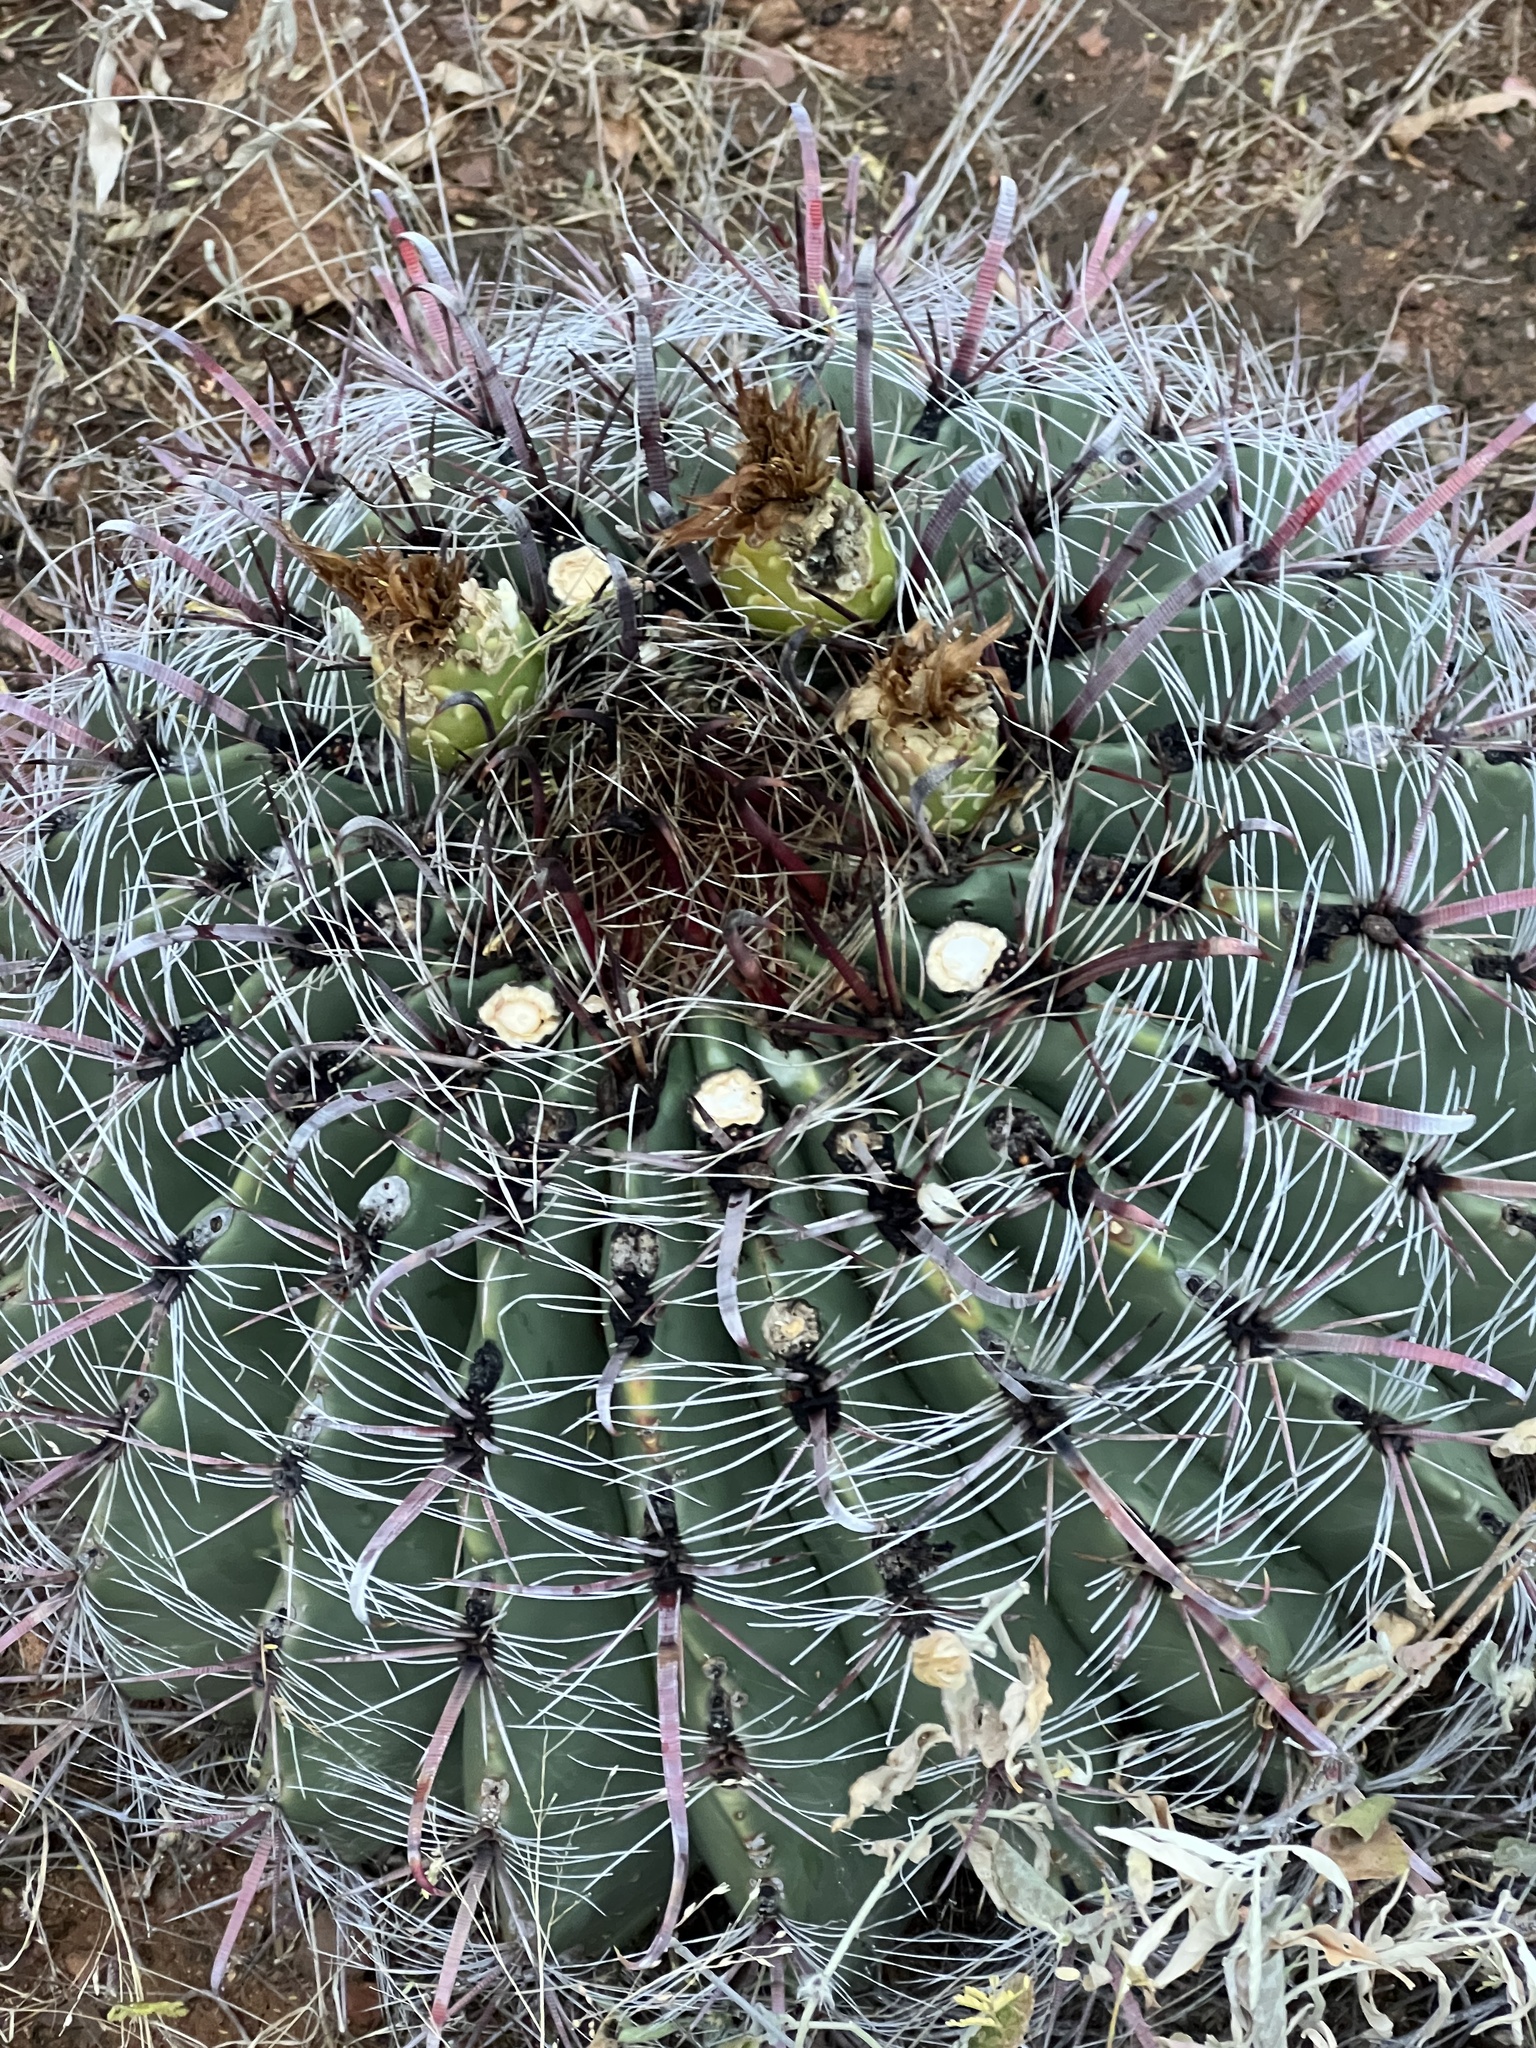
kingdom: Plantae
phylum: Tracheophyta
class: Magnoliopsida
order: Caryophyllales
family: Cactaceae
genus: Ferocactus
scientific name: Ferocactus wislizeni
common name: Candy barrel cactus
